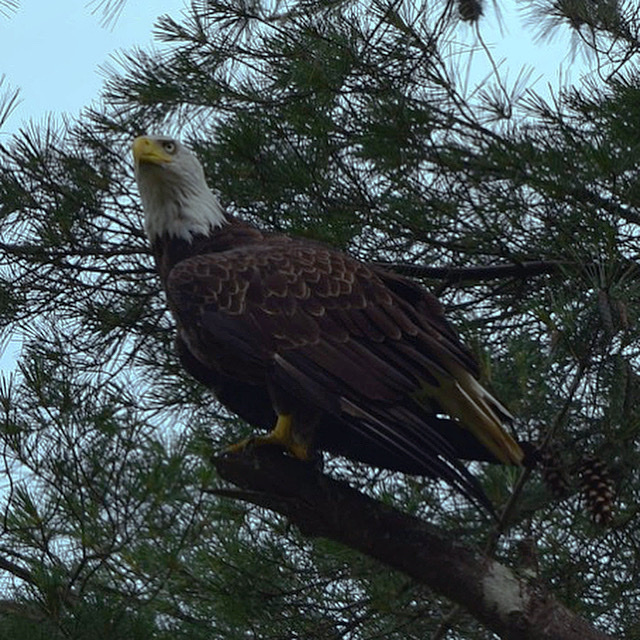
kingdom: Animalia
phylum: Chordata
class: Aves
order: Accipitriformes
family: Accipitridae
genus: Haliaeetus
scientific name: Haliaeetus leucocephalus
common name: Bald eagle
